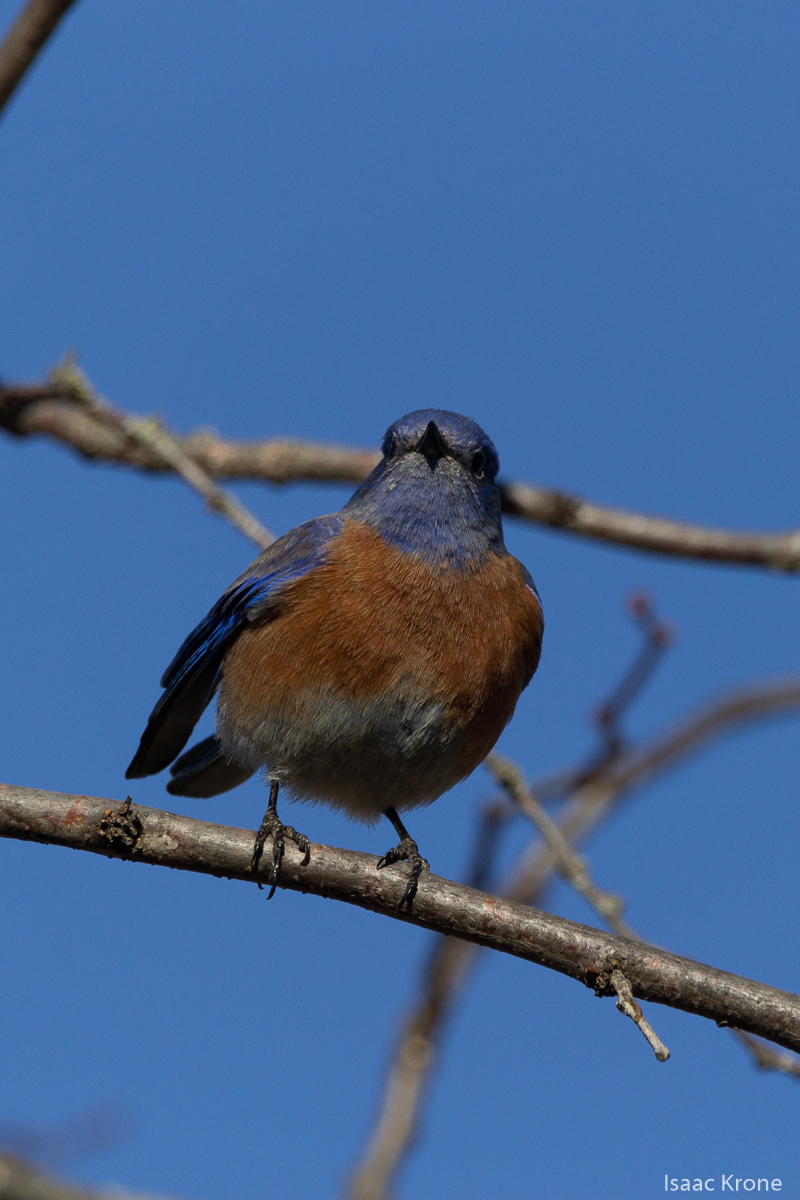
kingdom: Animalia
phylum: Chordata
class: Aves
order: Passeriformes
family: Turdidae
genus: Sialia
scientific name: Sialia mexicana
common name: Western bluebird
